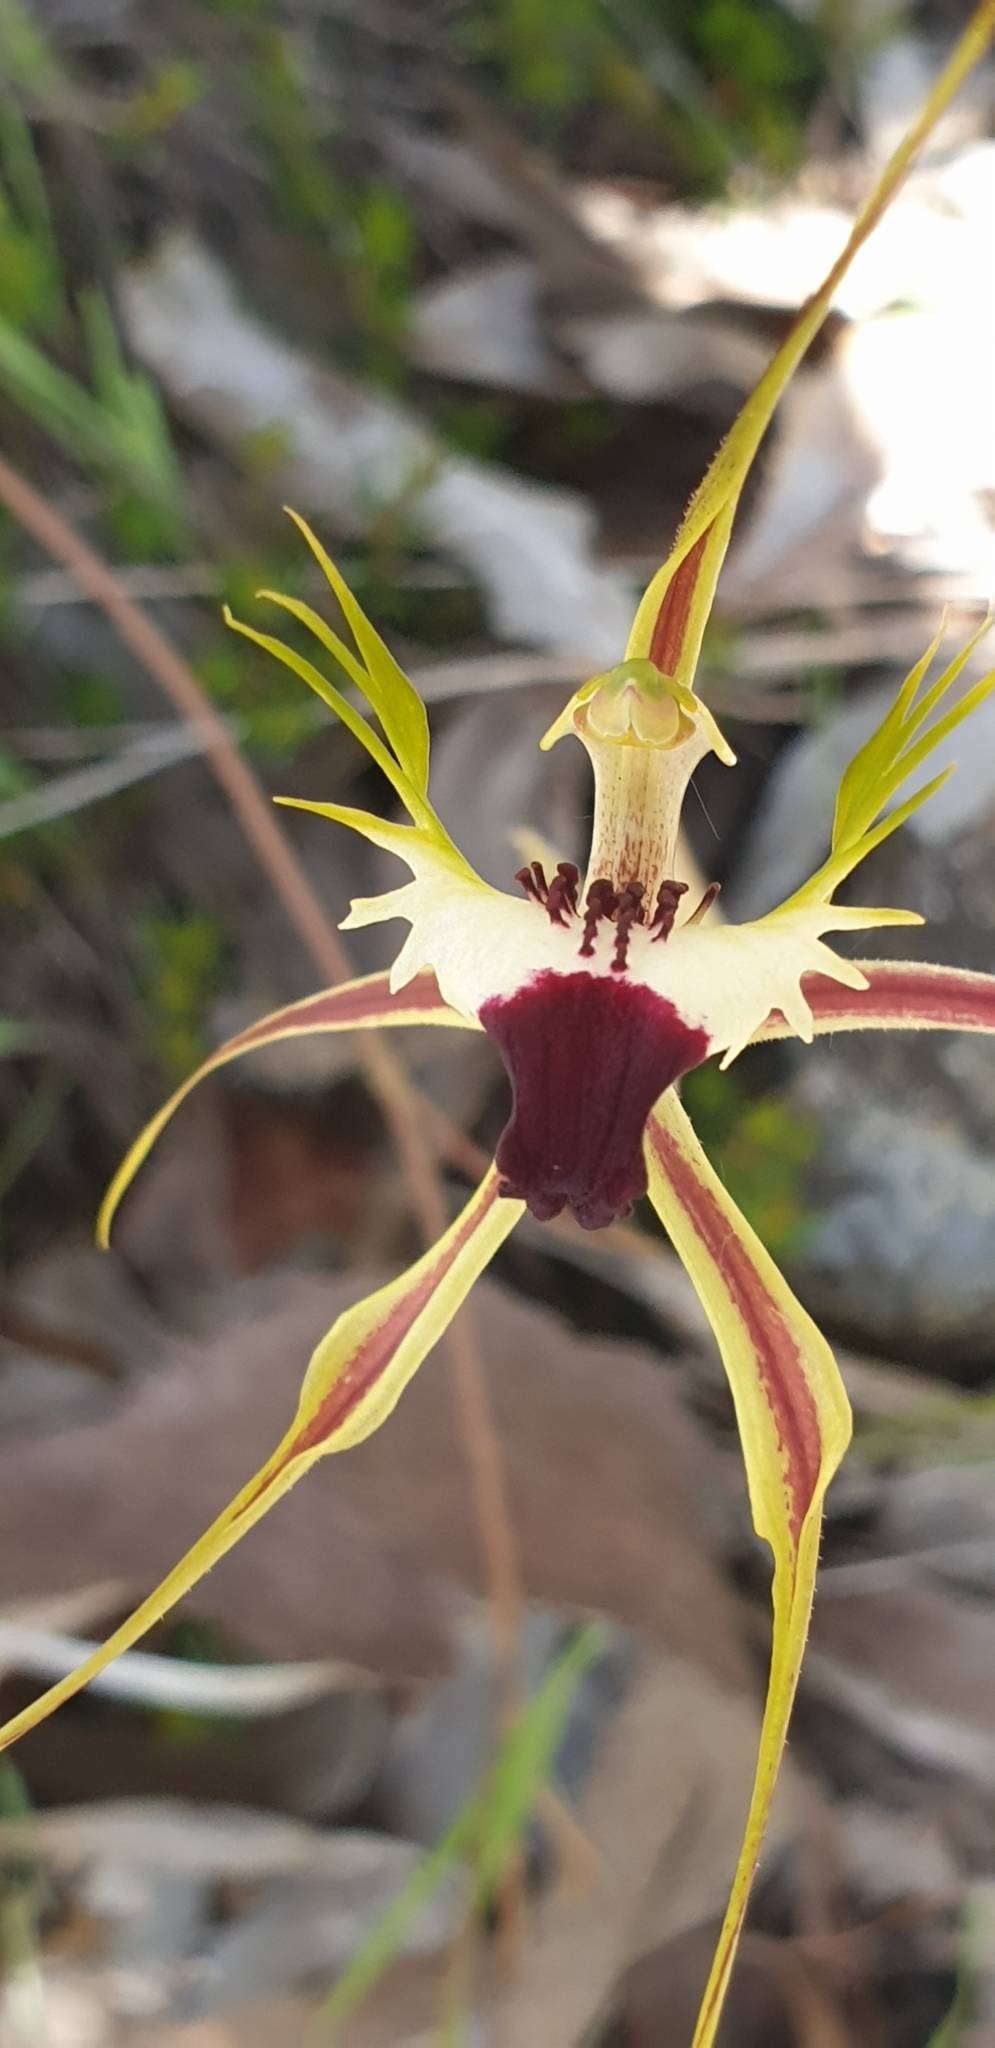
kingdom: Plantae
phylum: Tracheophyta
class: Liliopsida
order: Asparagales
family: Orchidaceae
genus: Caladenia
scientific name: Caladenia tentaculata
